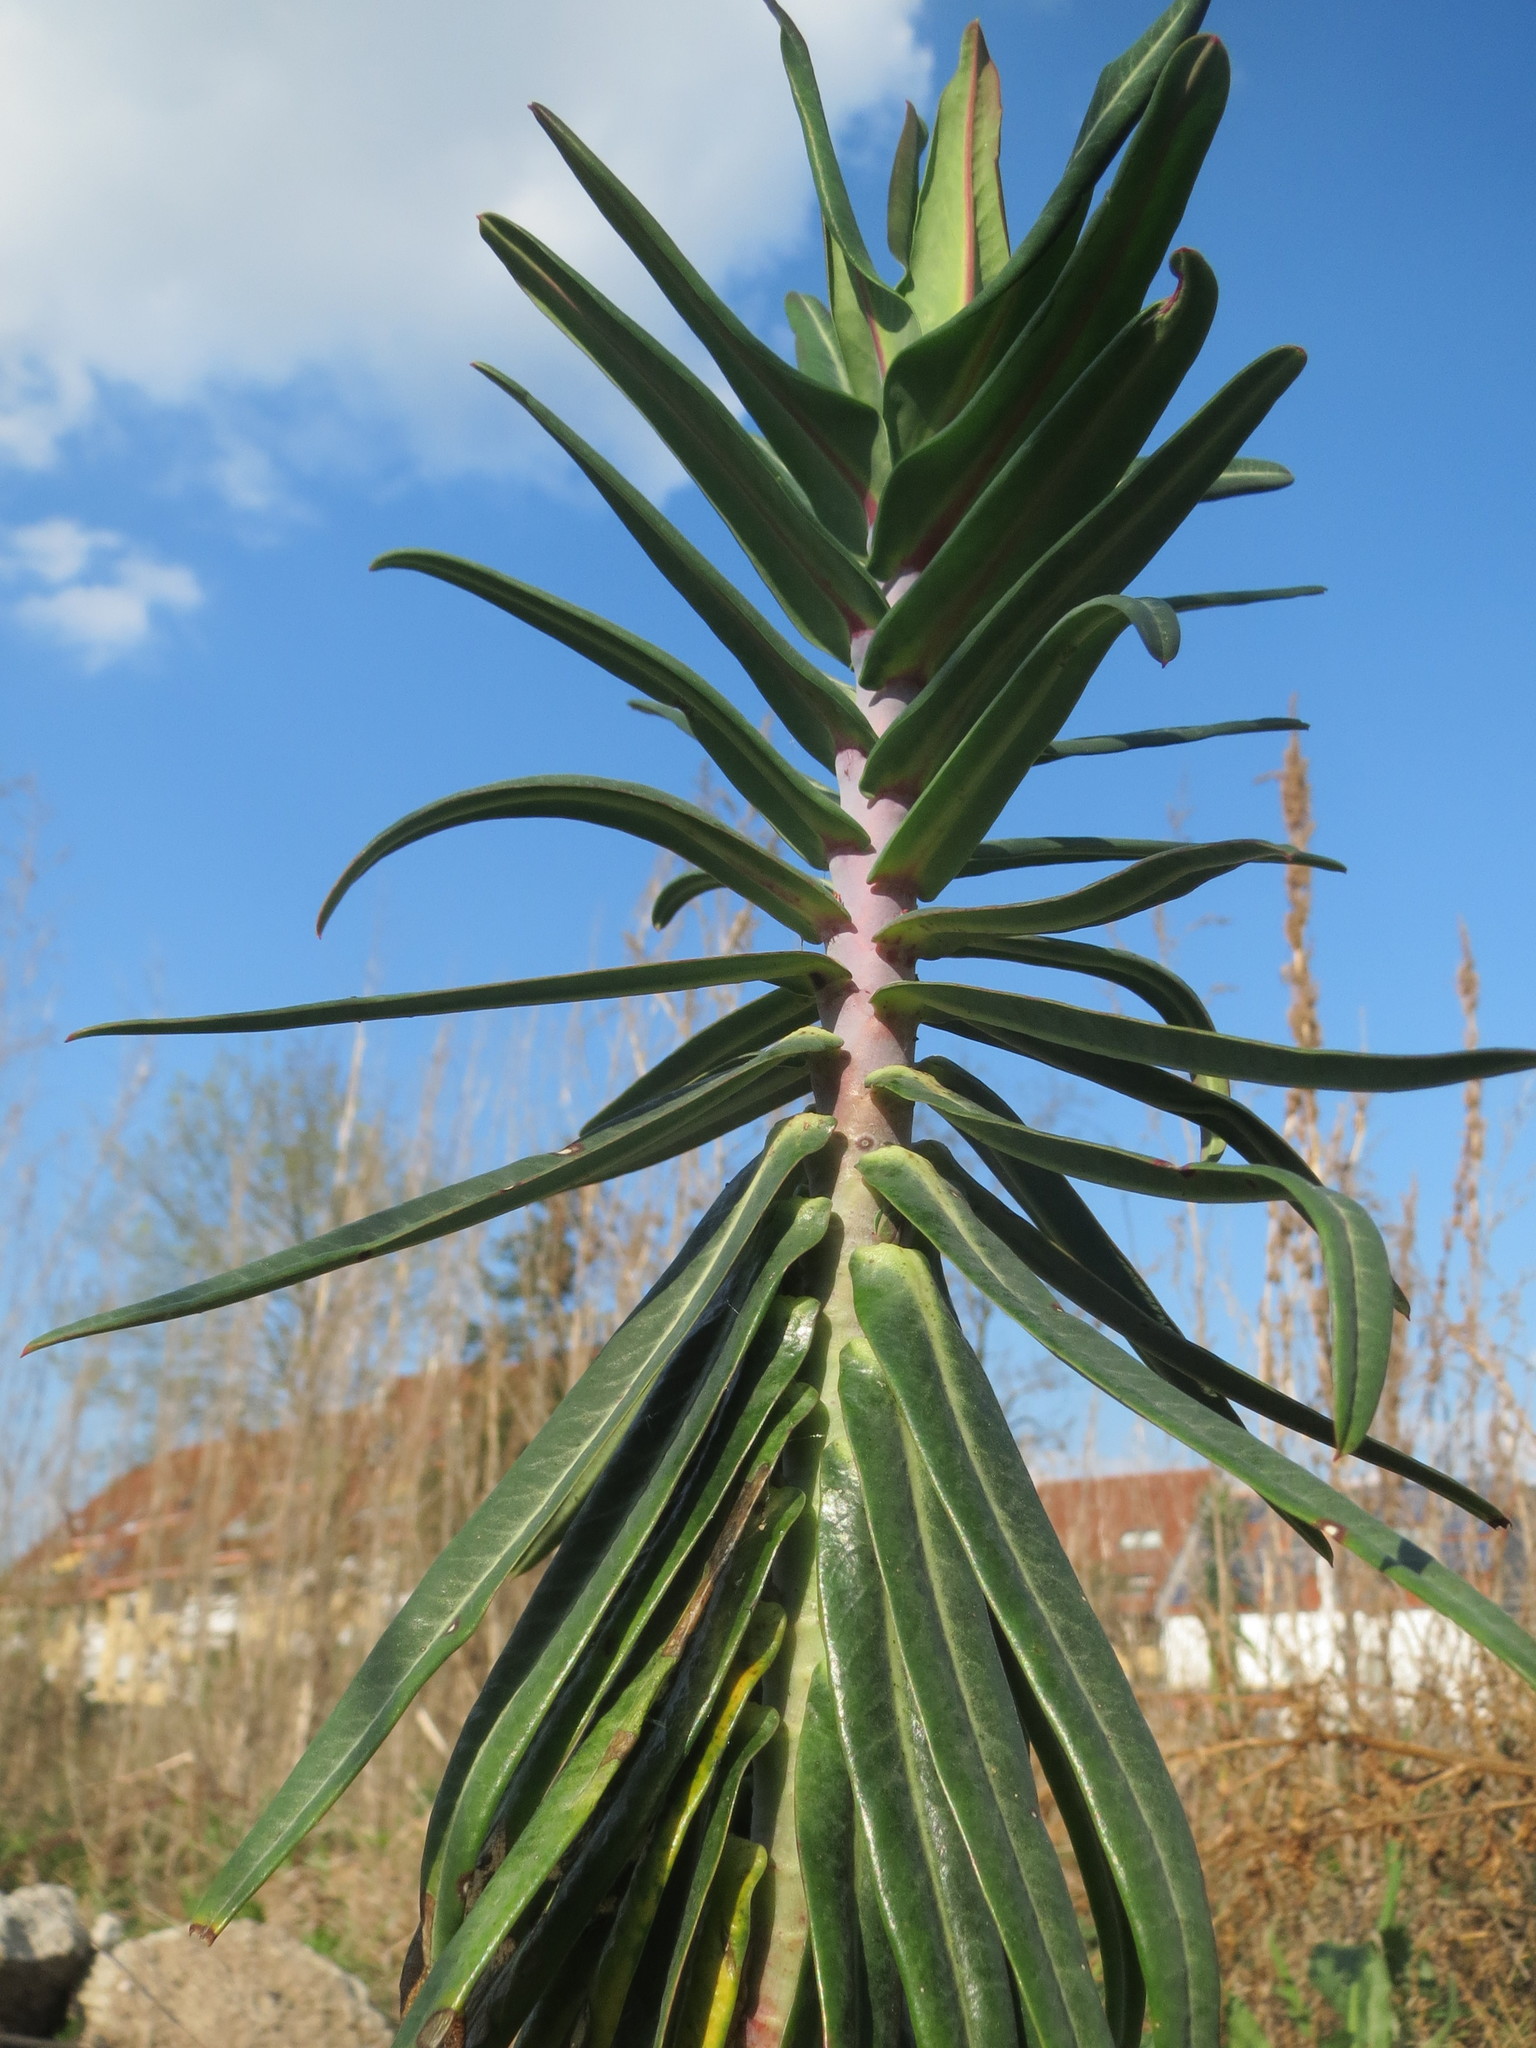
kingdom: Plantae
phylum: Tracheophyta
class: Magnoliopsida
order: Malpighiales
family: Euphorbiaceae
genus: Euphorbia
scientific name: Euphorbia lathyris
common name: Caper spurge
